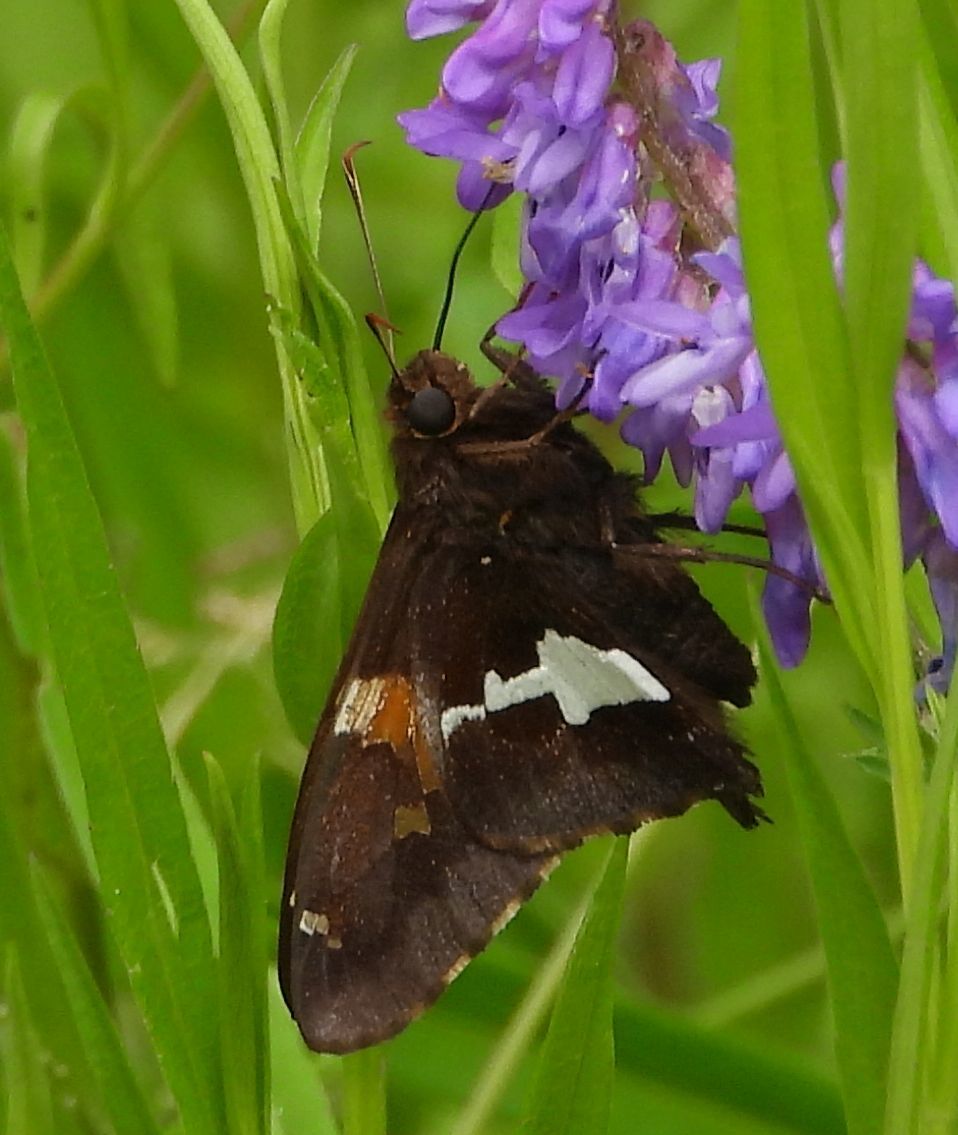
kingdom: Animalia
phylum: Arthropoda
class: Insecta
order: Lepidoptera
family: Hesperiidae
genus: Epargyreus
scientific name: Epargyreus clarus
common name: Silver-spotted skipper
